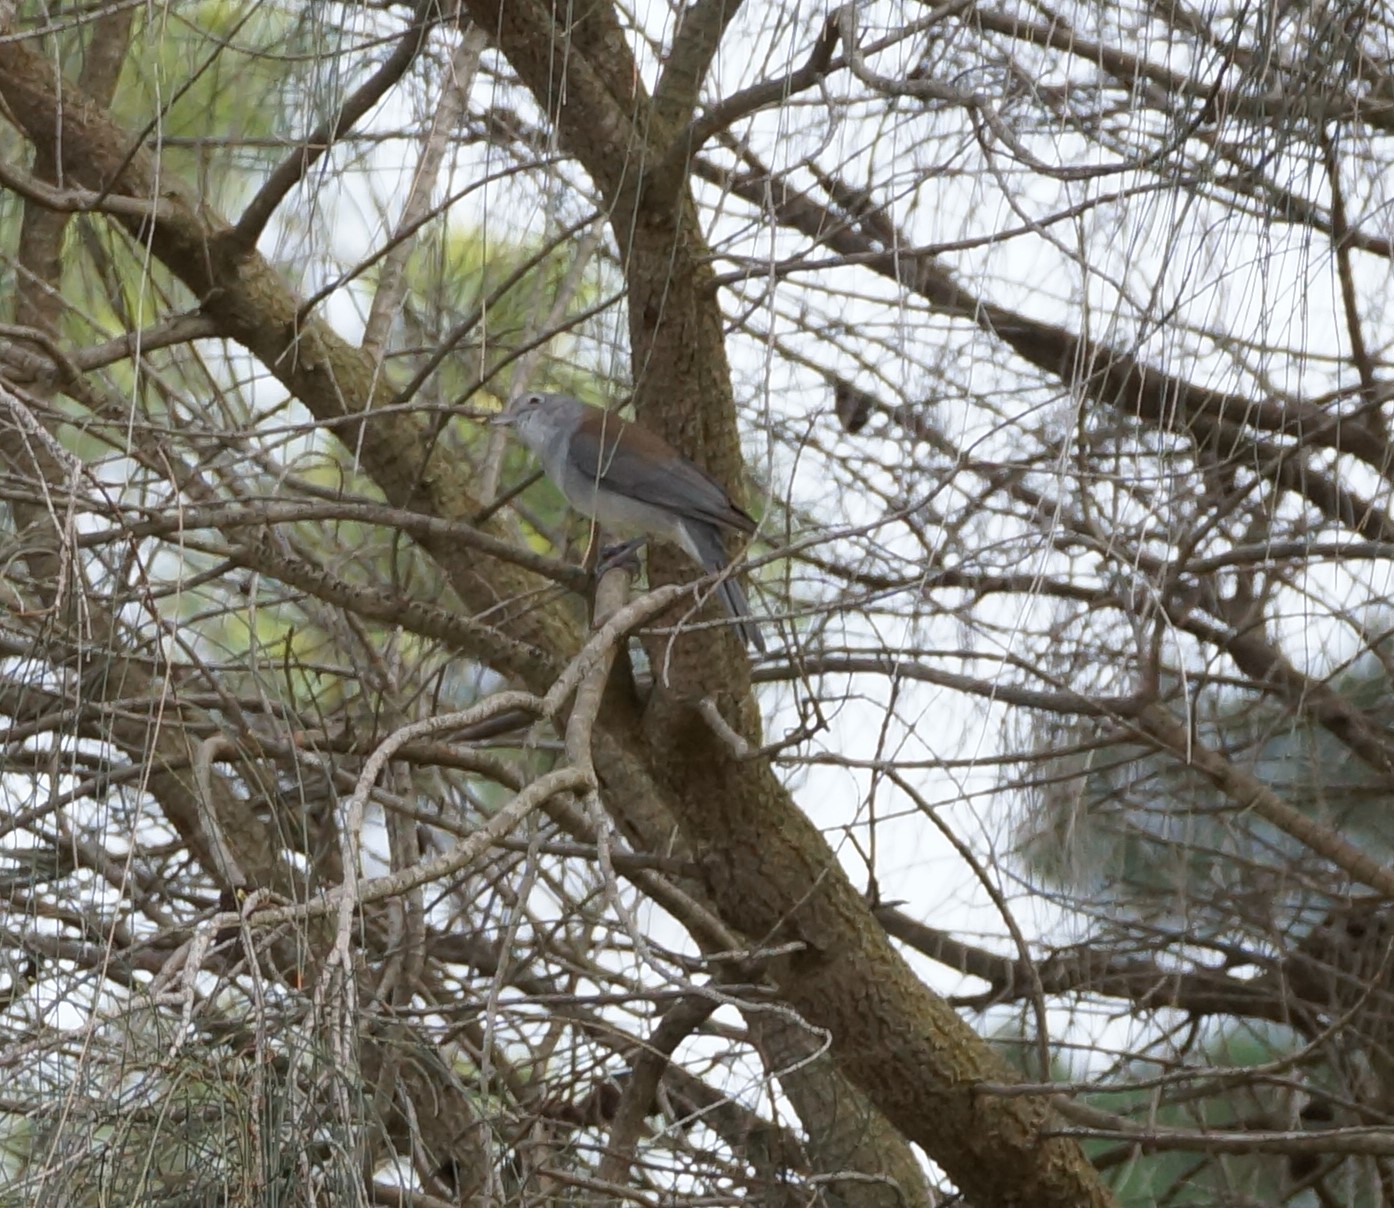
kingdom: Animalia
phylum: Chordata
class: Aves
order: Passeriformes
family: Pachycephalidae
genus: Colluricincla
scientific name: Colluricincla harmonica
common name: Grey shrikethrush
